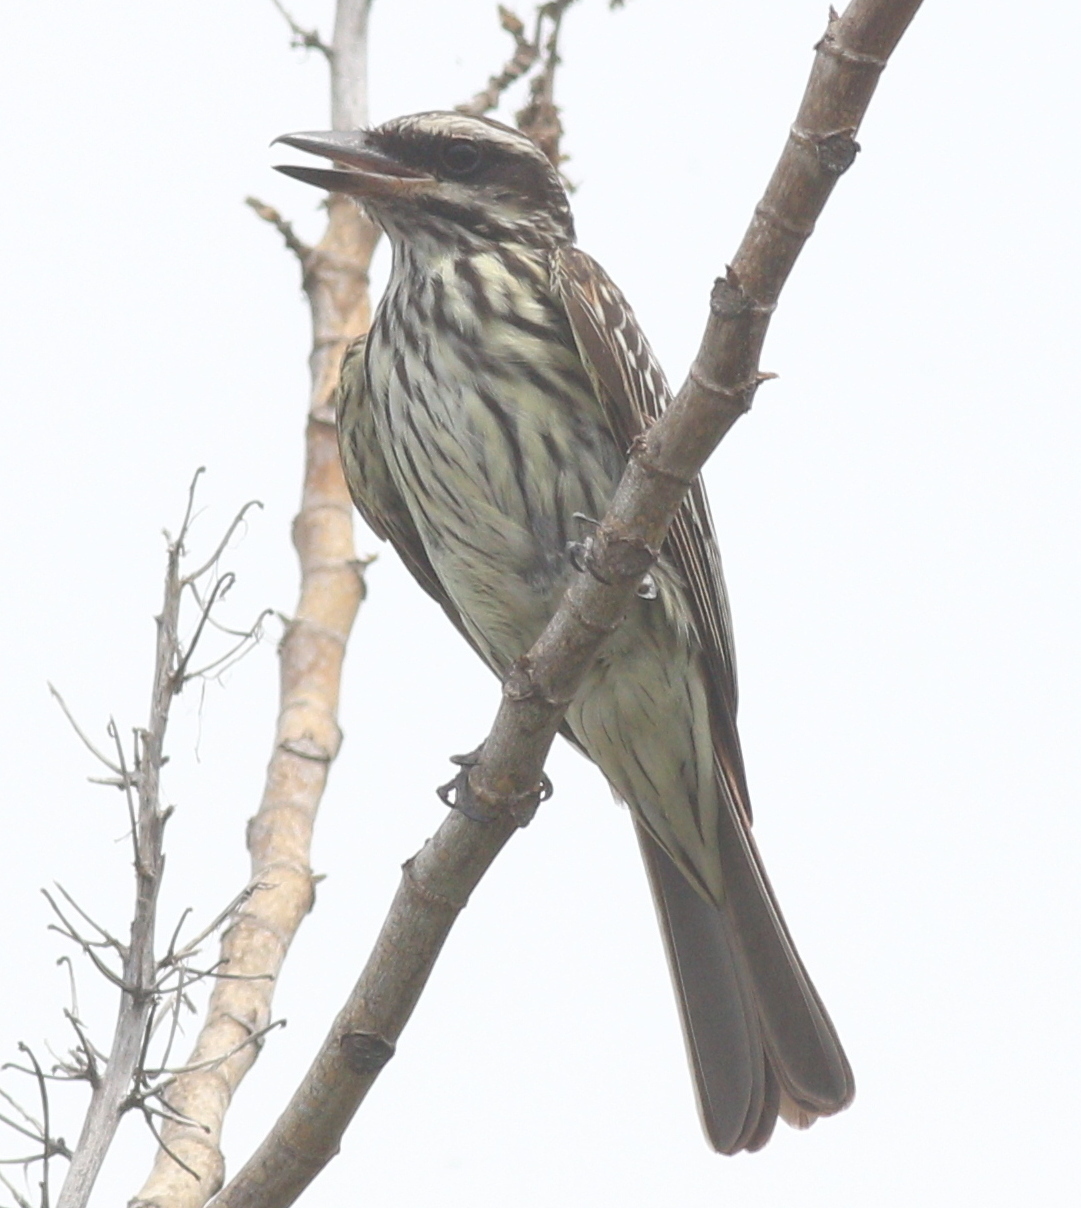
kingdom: Animalia
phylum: Chordata
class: Aves
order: Passeriformes
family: Tyrannidae
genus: Myiodynastes
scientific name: Myiodynastes maculatus
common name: Streaked flycatcher
